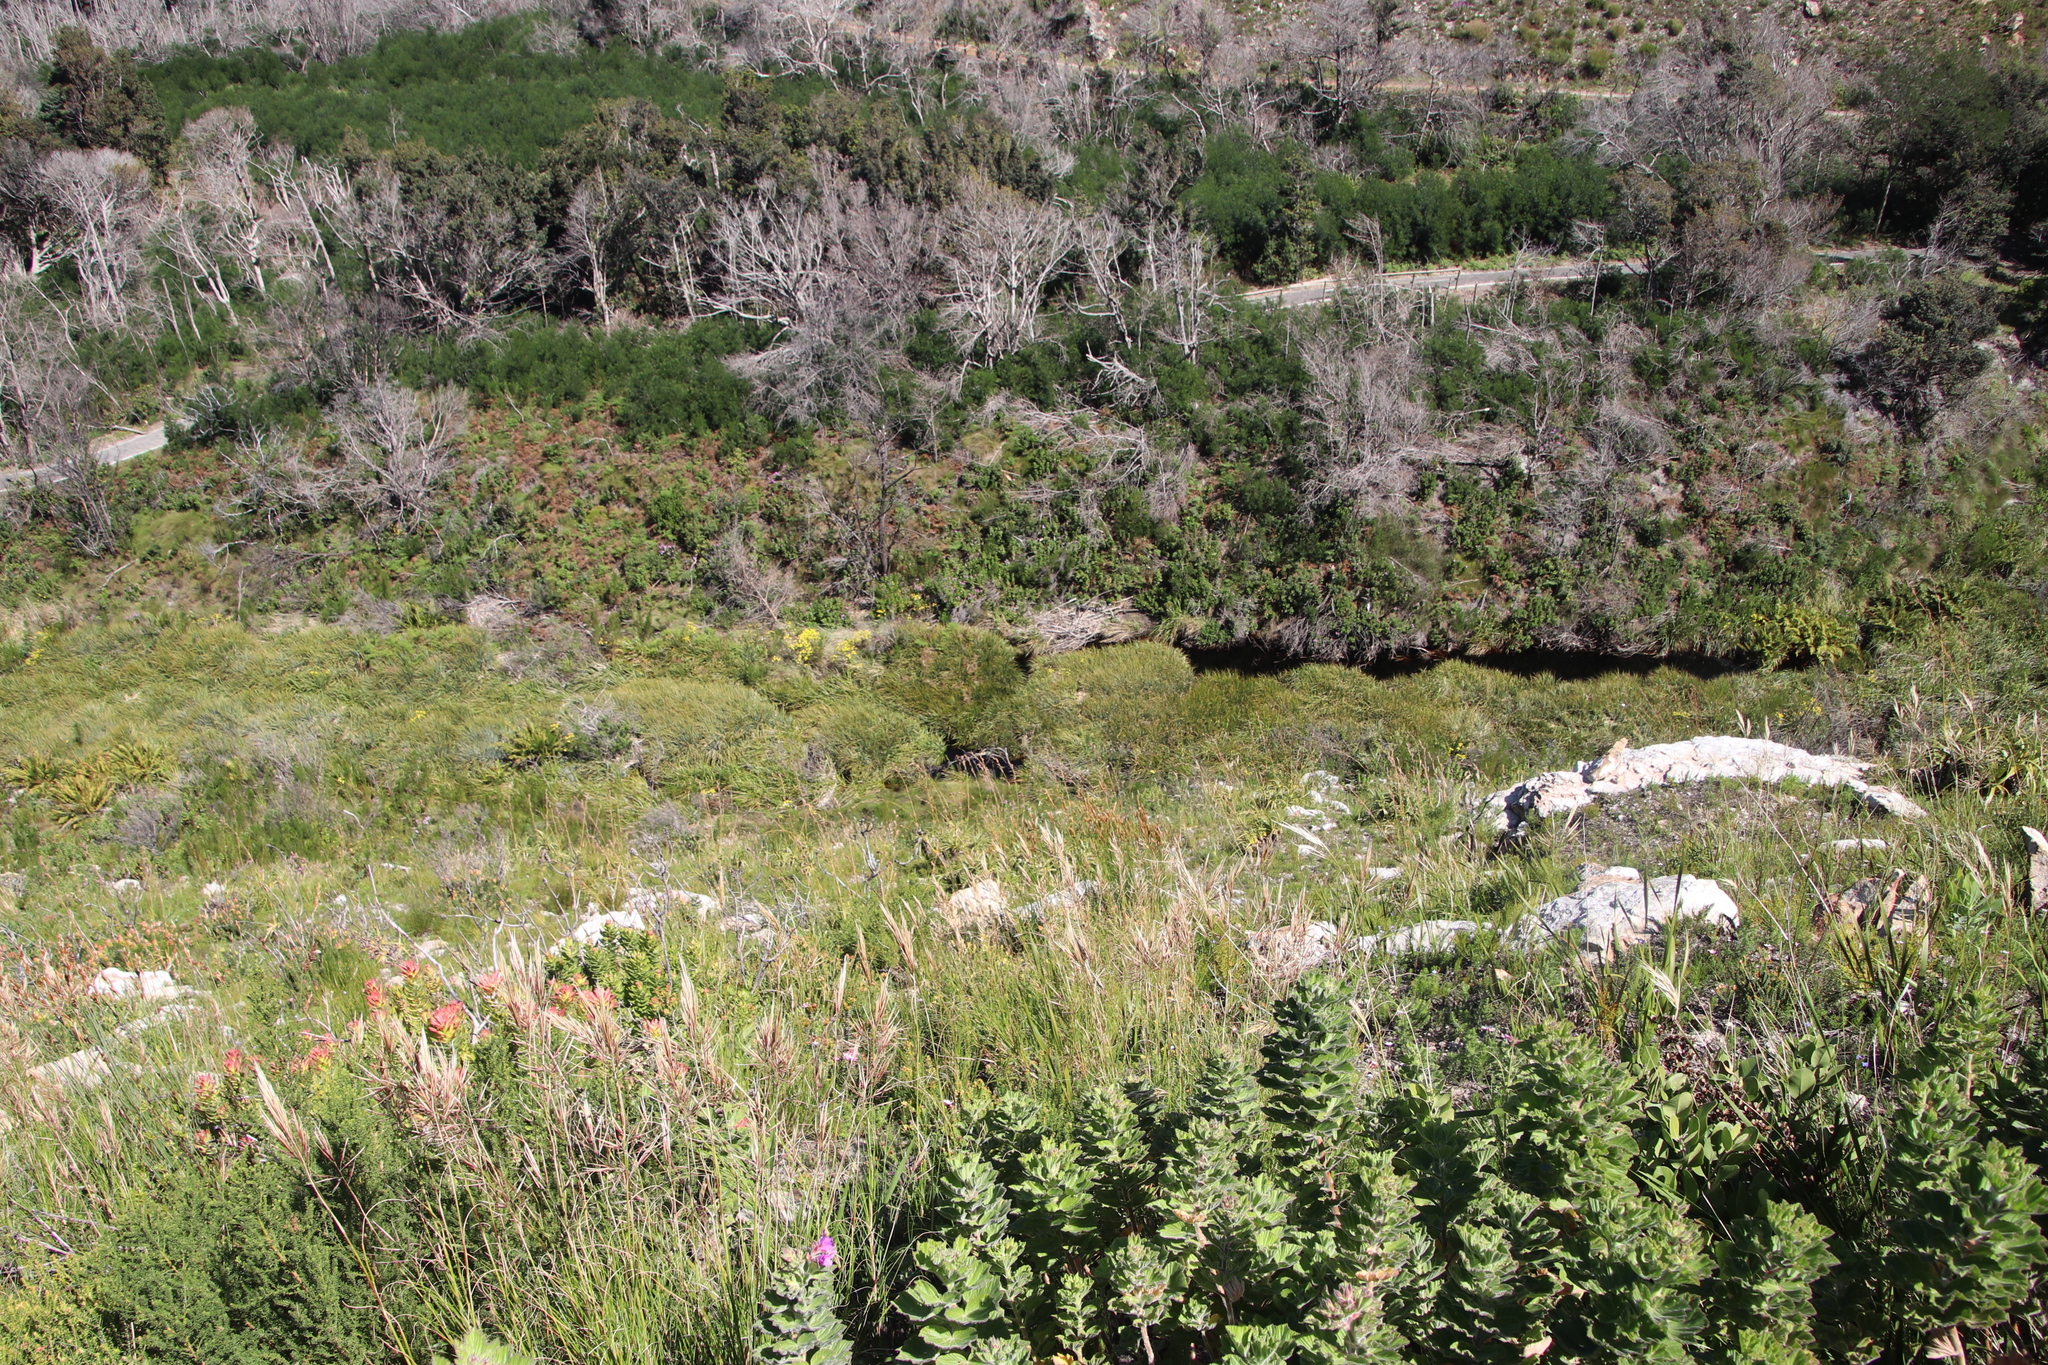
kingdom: Plantae
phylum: Tracheophyta
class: Liliopsida
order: Poales
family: Thurniaceae
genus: Prionium
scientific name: Prionium serratum
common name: Palmiet
